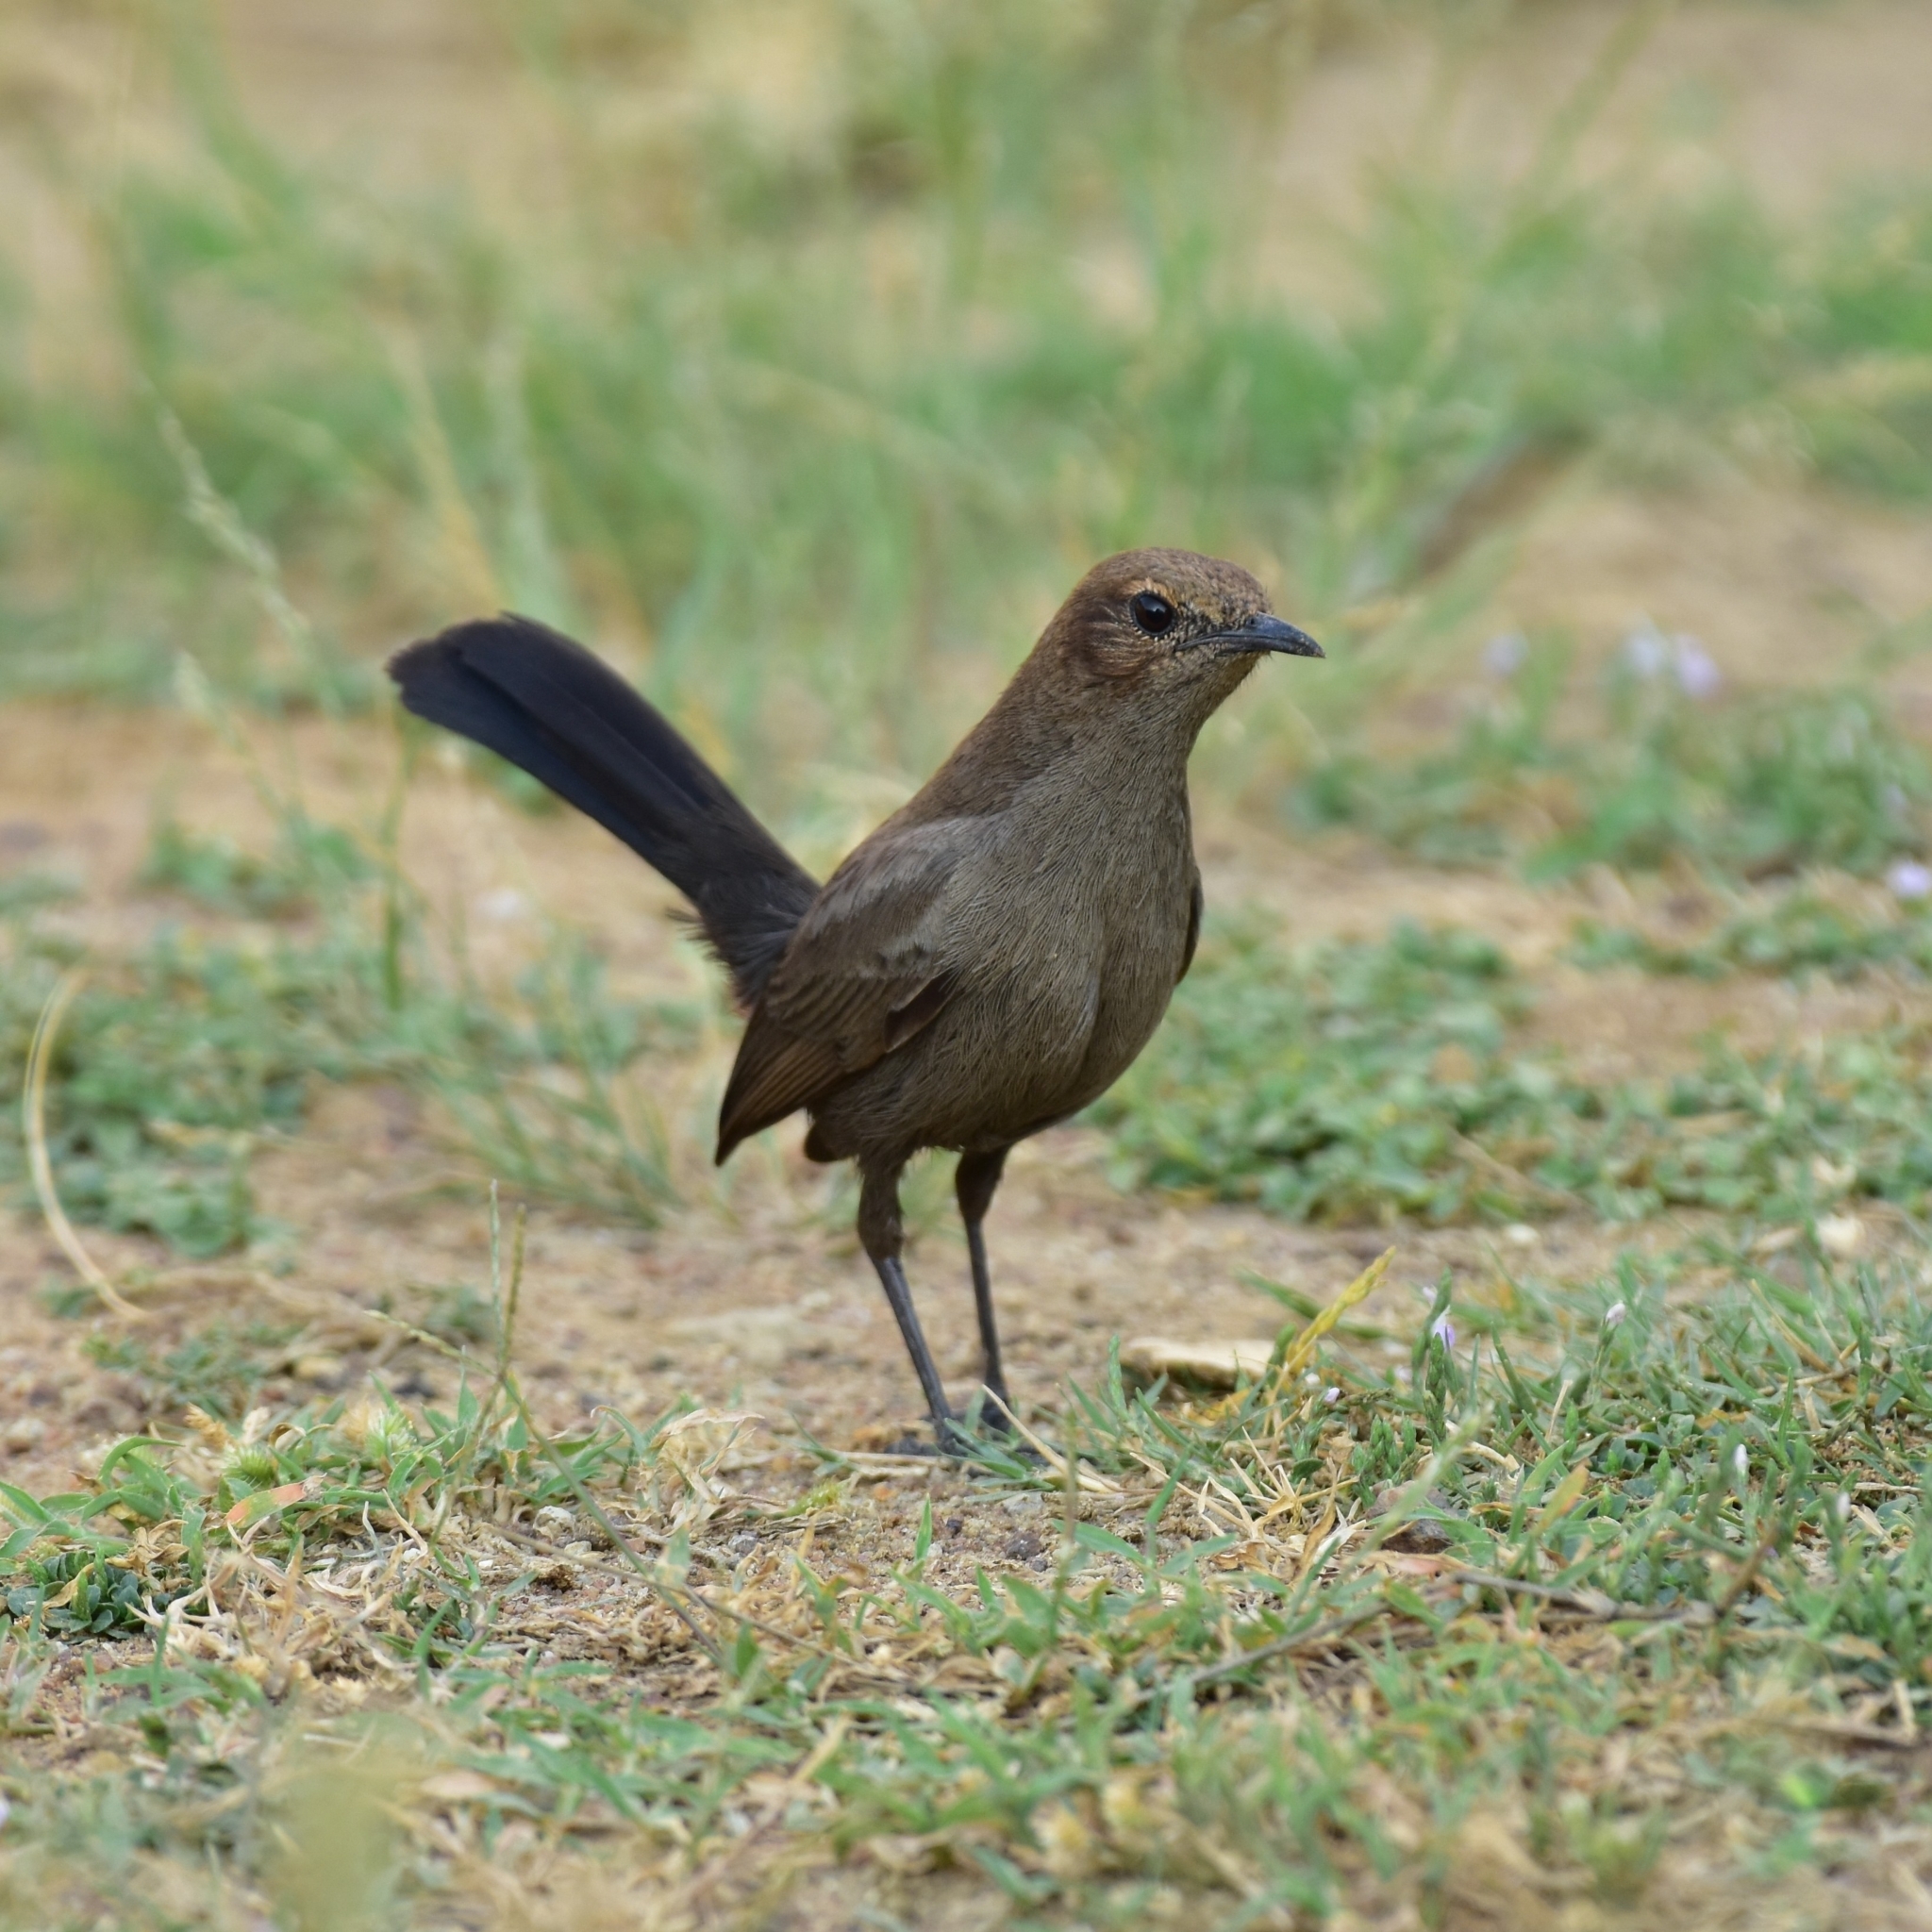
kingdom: Animalia
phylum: Chordata
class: Aves
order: Passeriformes
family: Muscicapidae
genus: Saxicoloides
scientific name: Saxicoloides fulicatus
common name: Indian robin
